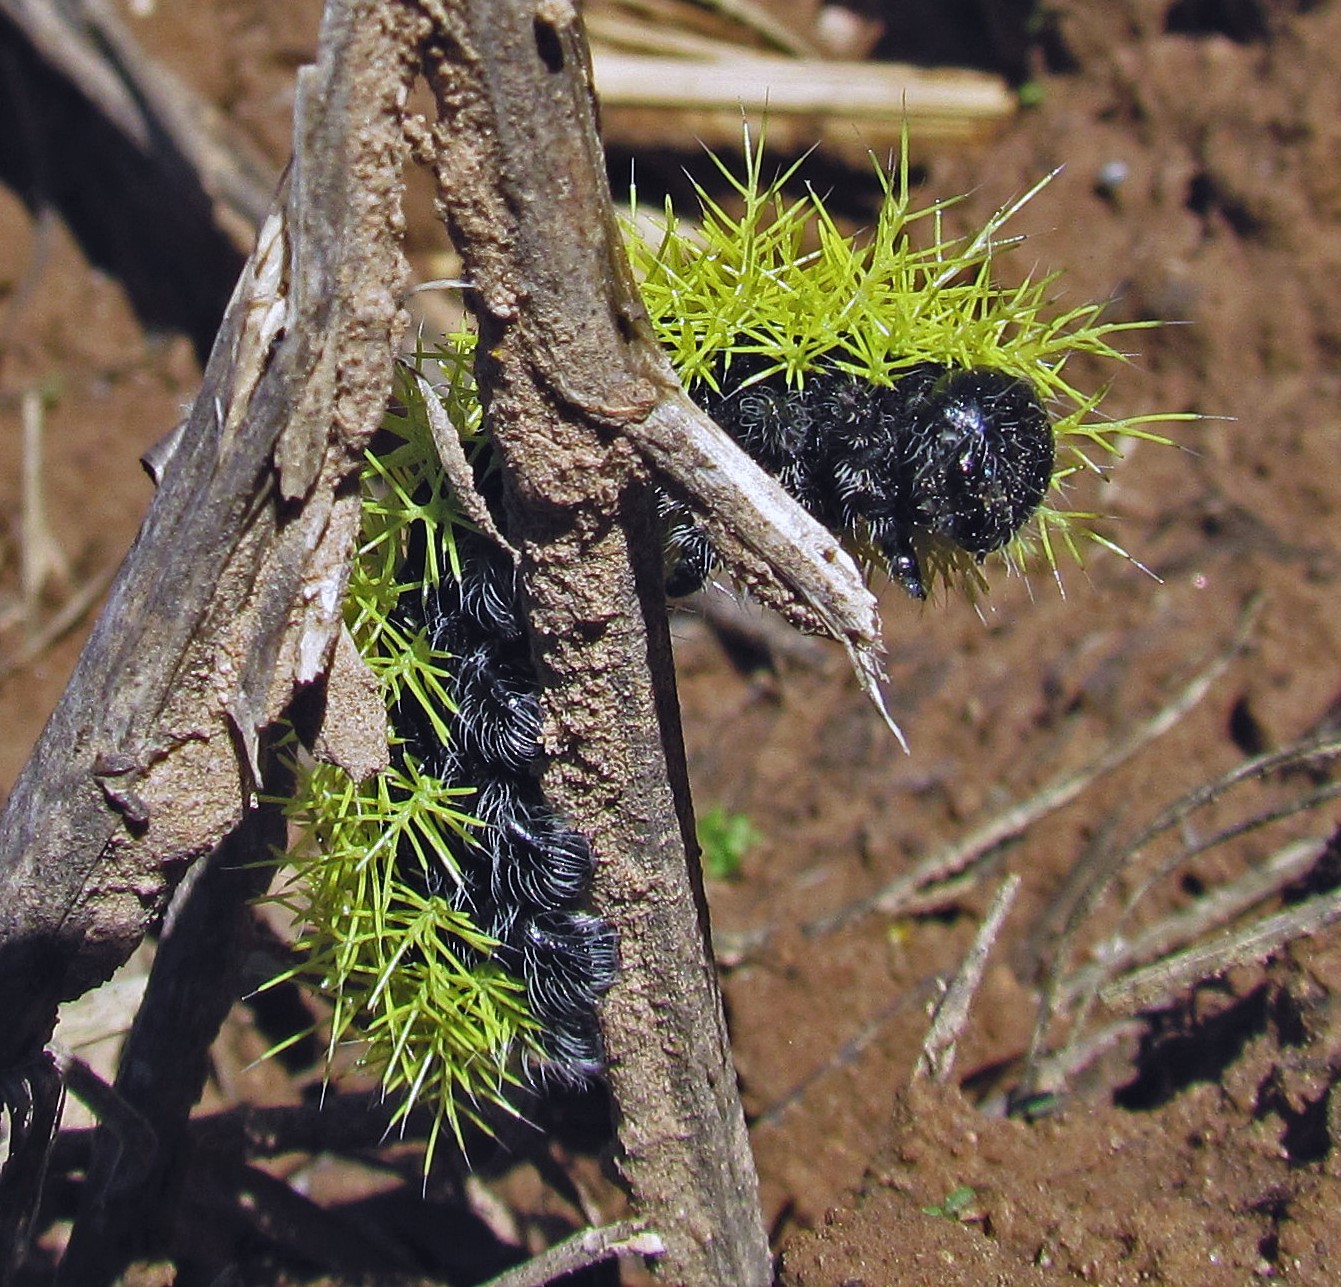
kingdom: Animalia
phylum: Arthropoda
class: Insecta
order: Lepidoptera
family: Saturniidae
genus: Leucanella
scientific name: Leucanella viridescens
